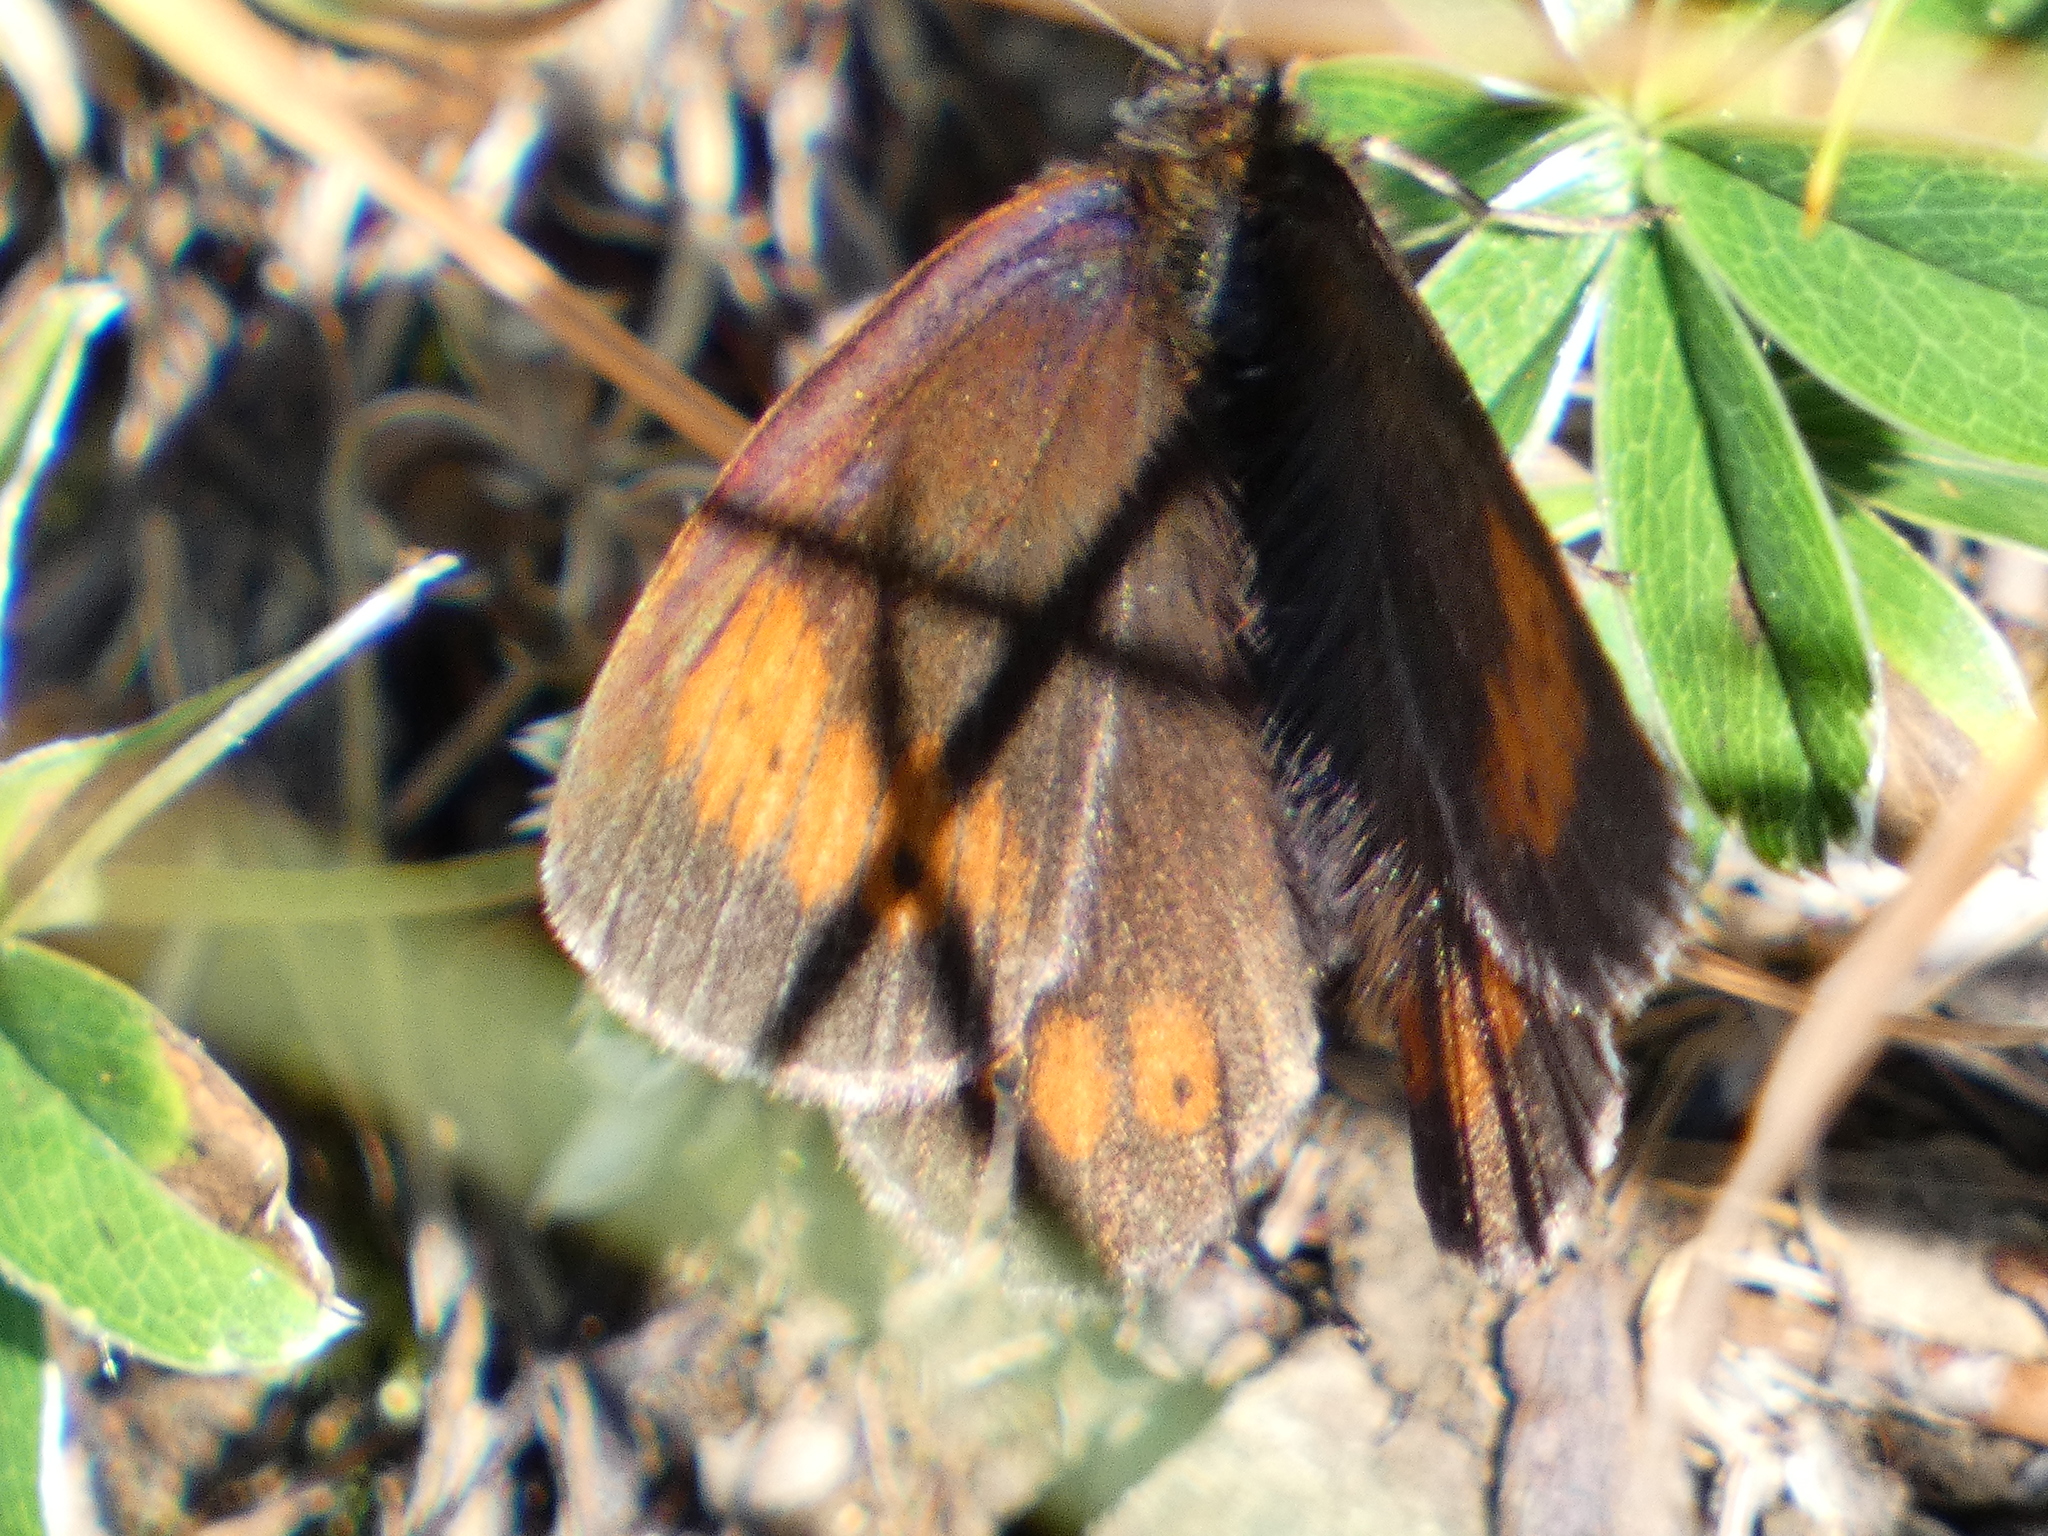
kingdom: Animalia
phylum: Arthropoda
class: Insecta
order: Lepidoptera
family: Nymphalidae
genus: Erebia
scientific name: Erebia euryale
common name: Large ringlet
